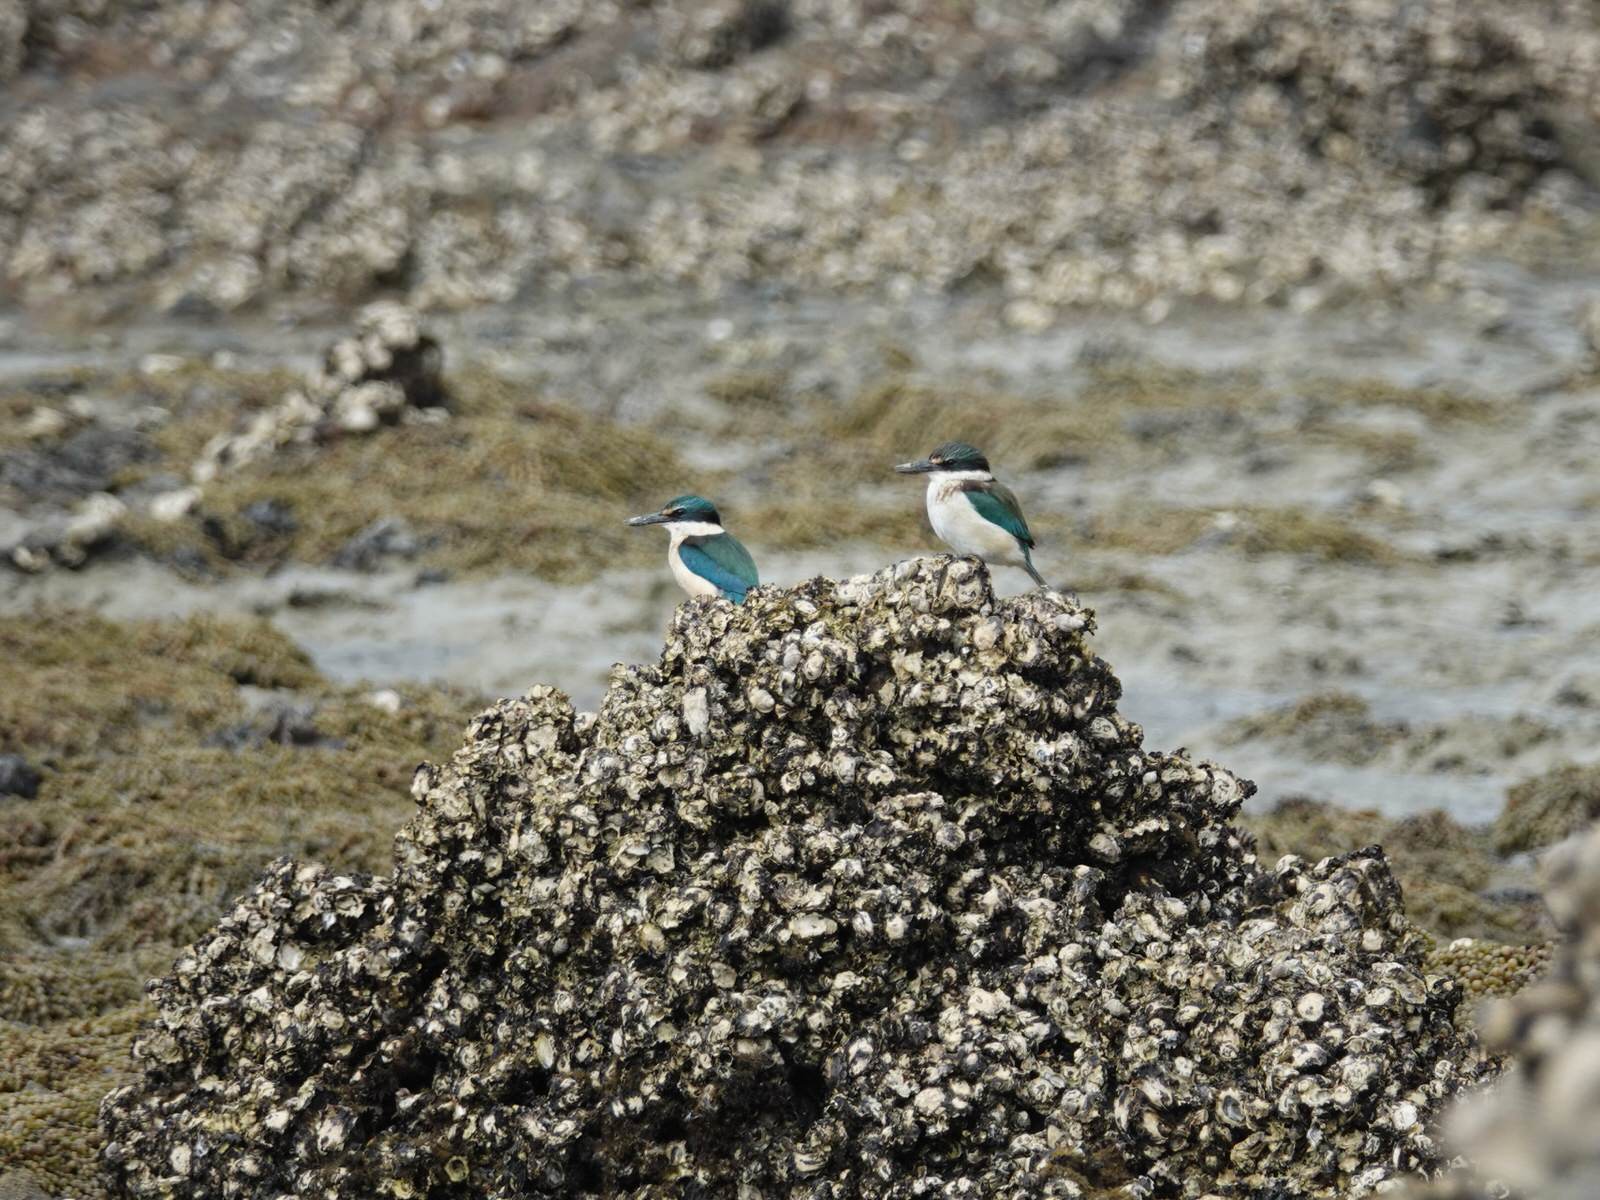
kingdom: Animalia
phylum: Chordata
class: Aves
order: Coraciiformes
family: Alcedinidae
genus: Todiramphus
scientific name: Todiramphus sanctus
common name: Sacred kingfisher
